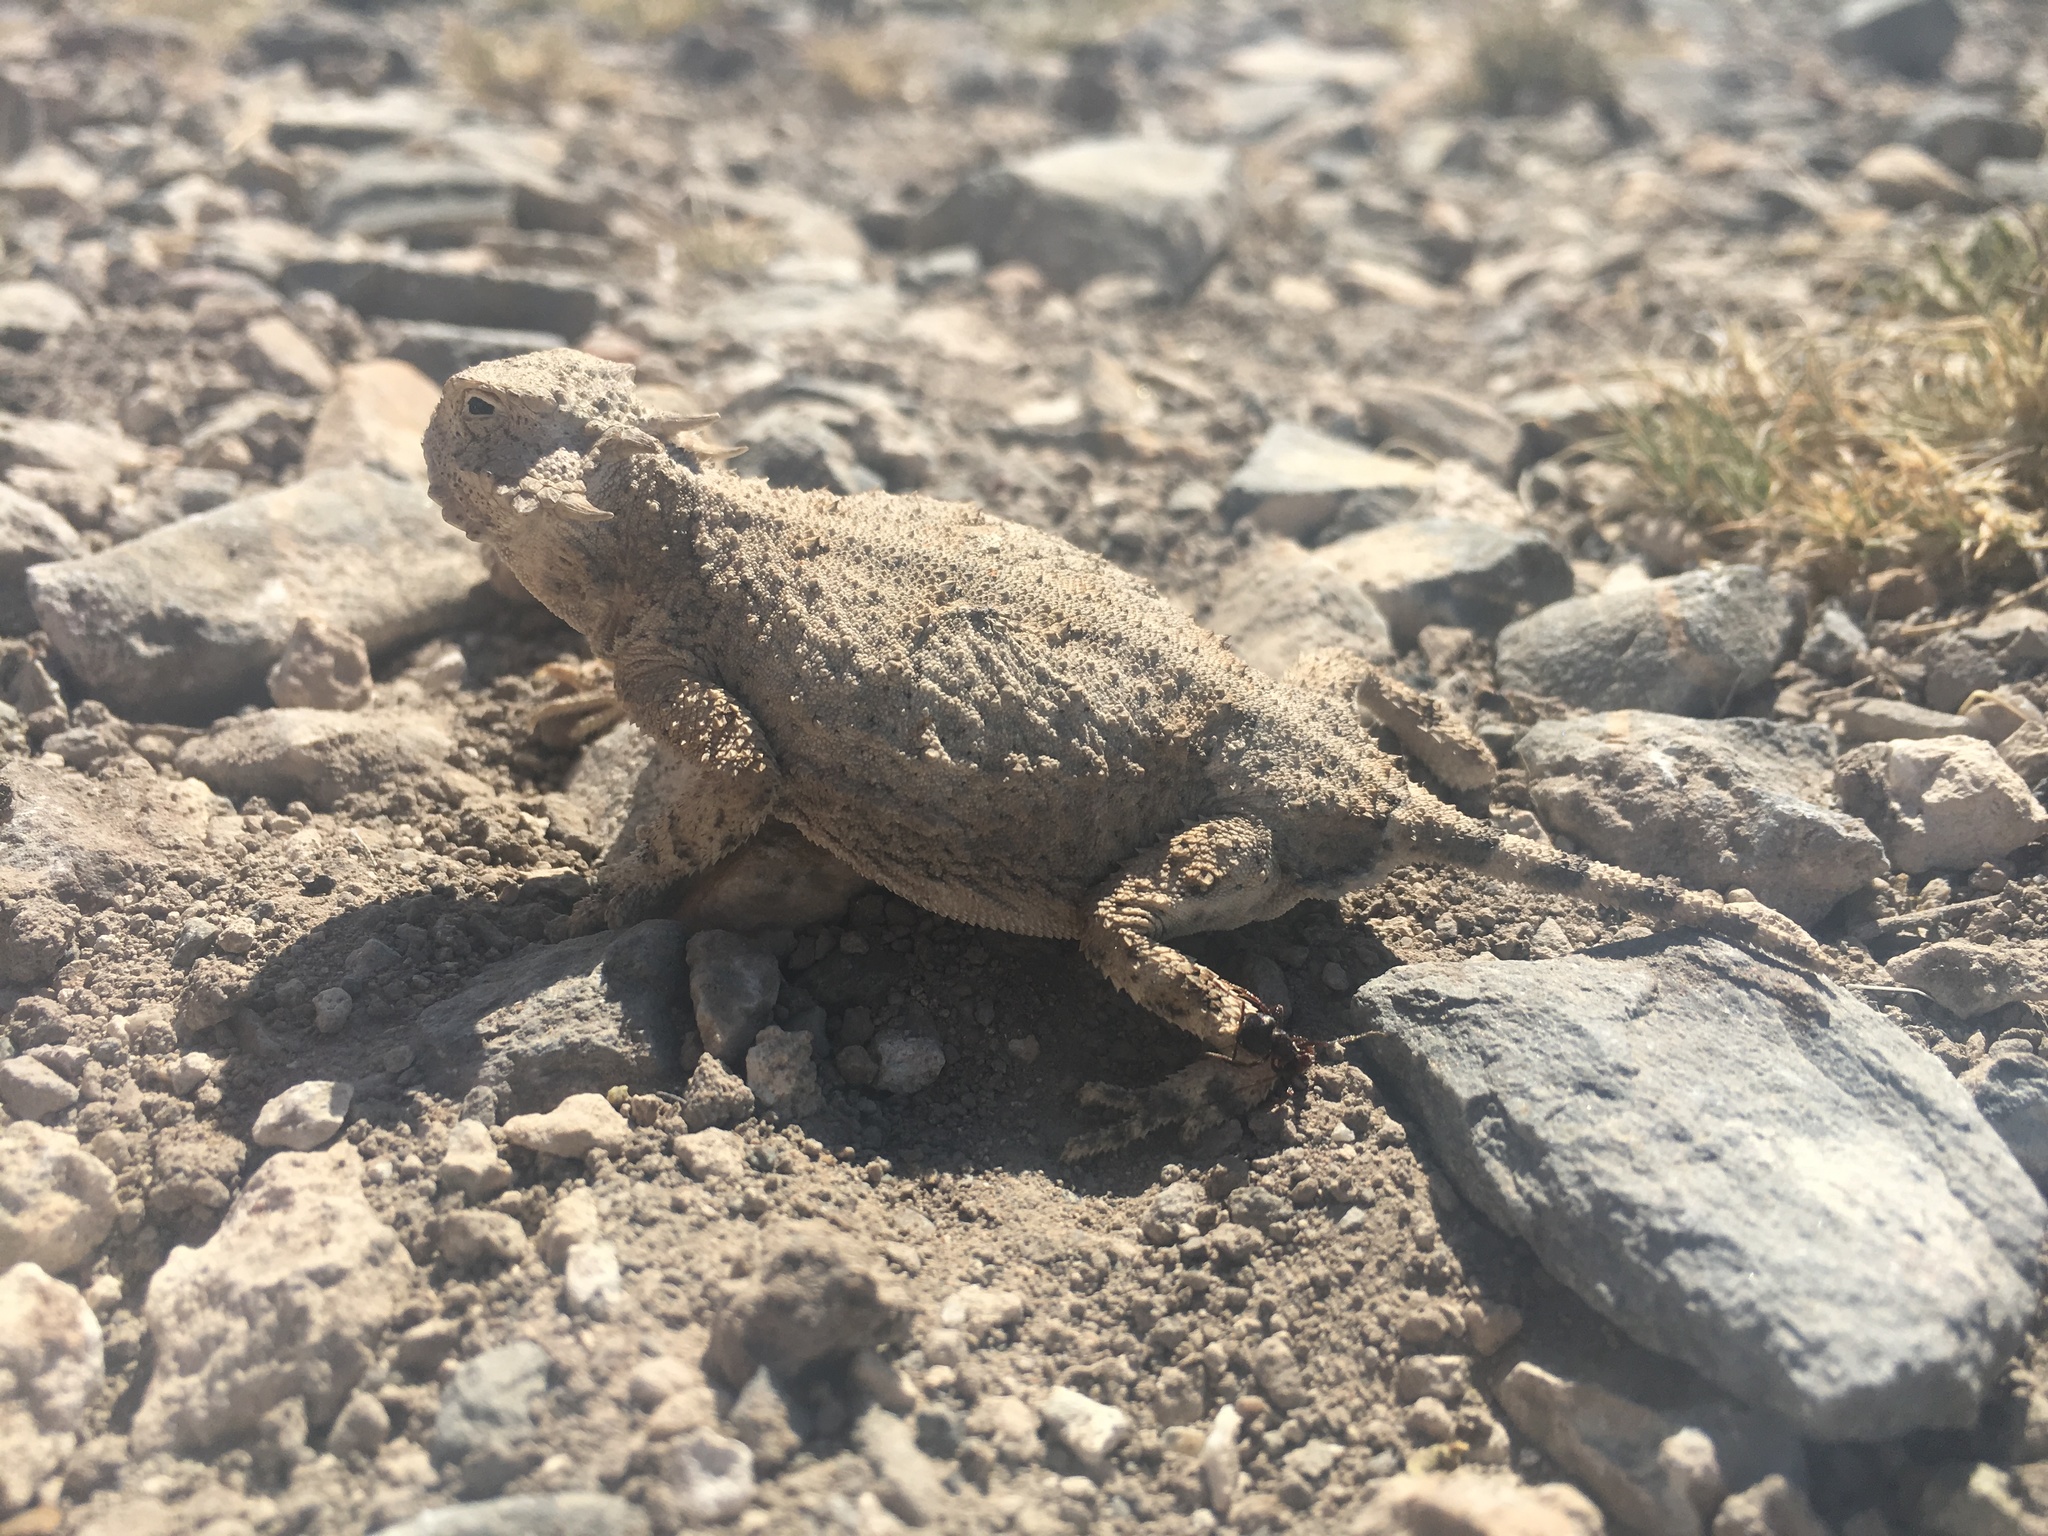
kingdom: Animalia
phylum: Chordata
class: Squamata
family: Phrynosomatidae
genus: Phrynosoma
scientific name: Phrynosoma modestum
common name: Roundtail horned lizard
